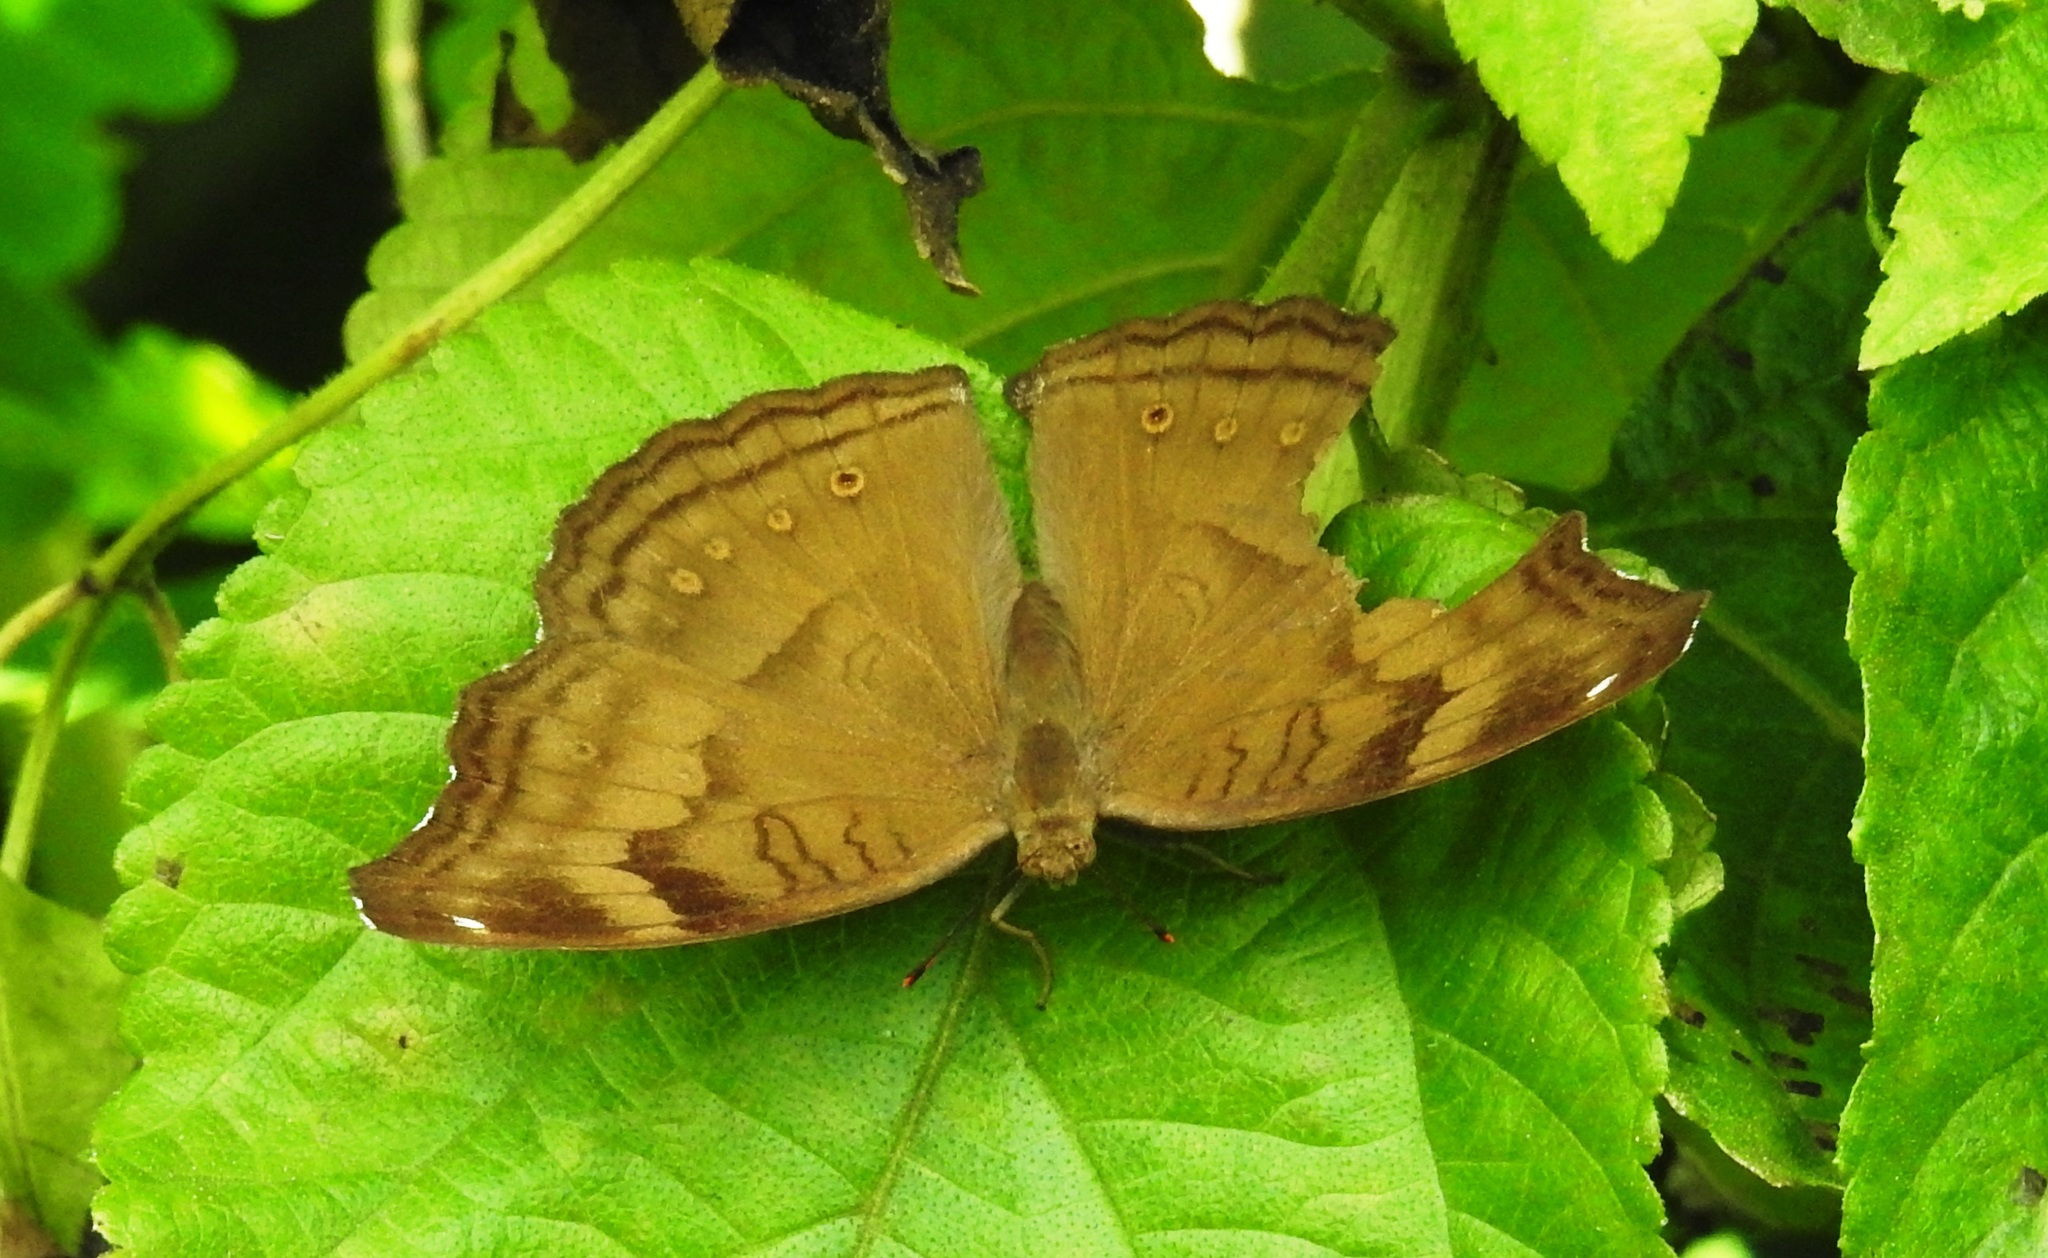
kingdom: Animalia
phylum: Arthropoda
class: Insecta
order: Lepidoptera
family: Nymphalidae
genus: Junonia
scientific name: Junonia iphita
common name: Chocolate pansy
